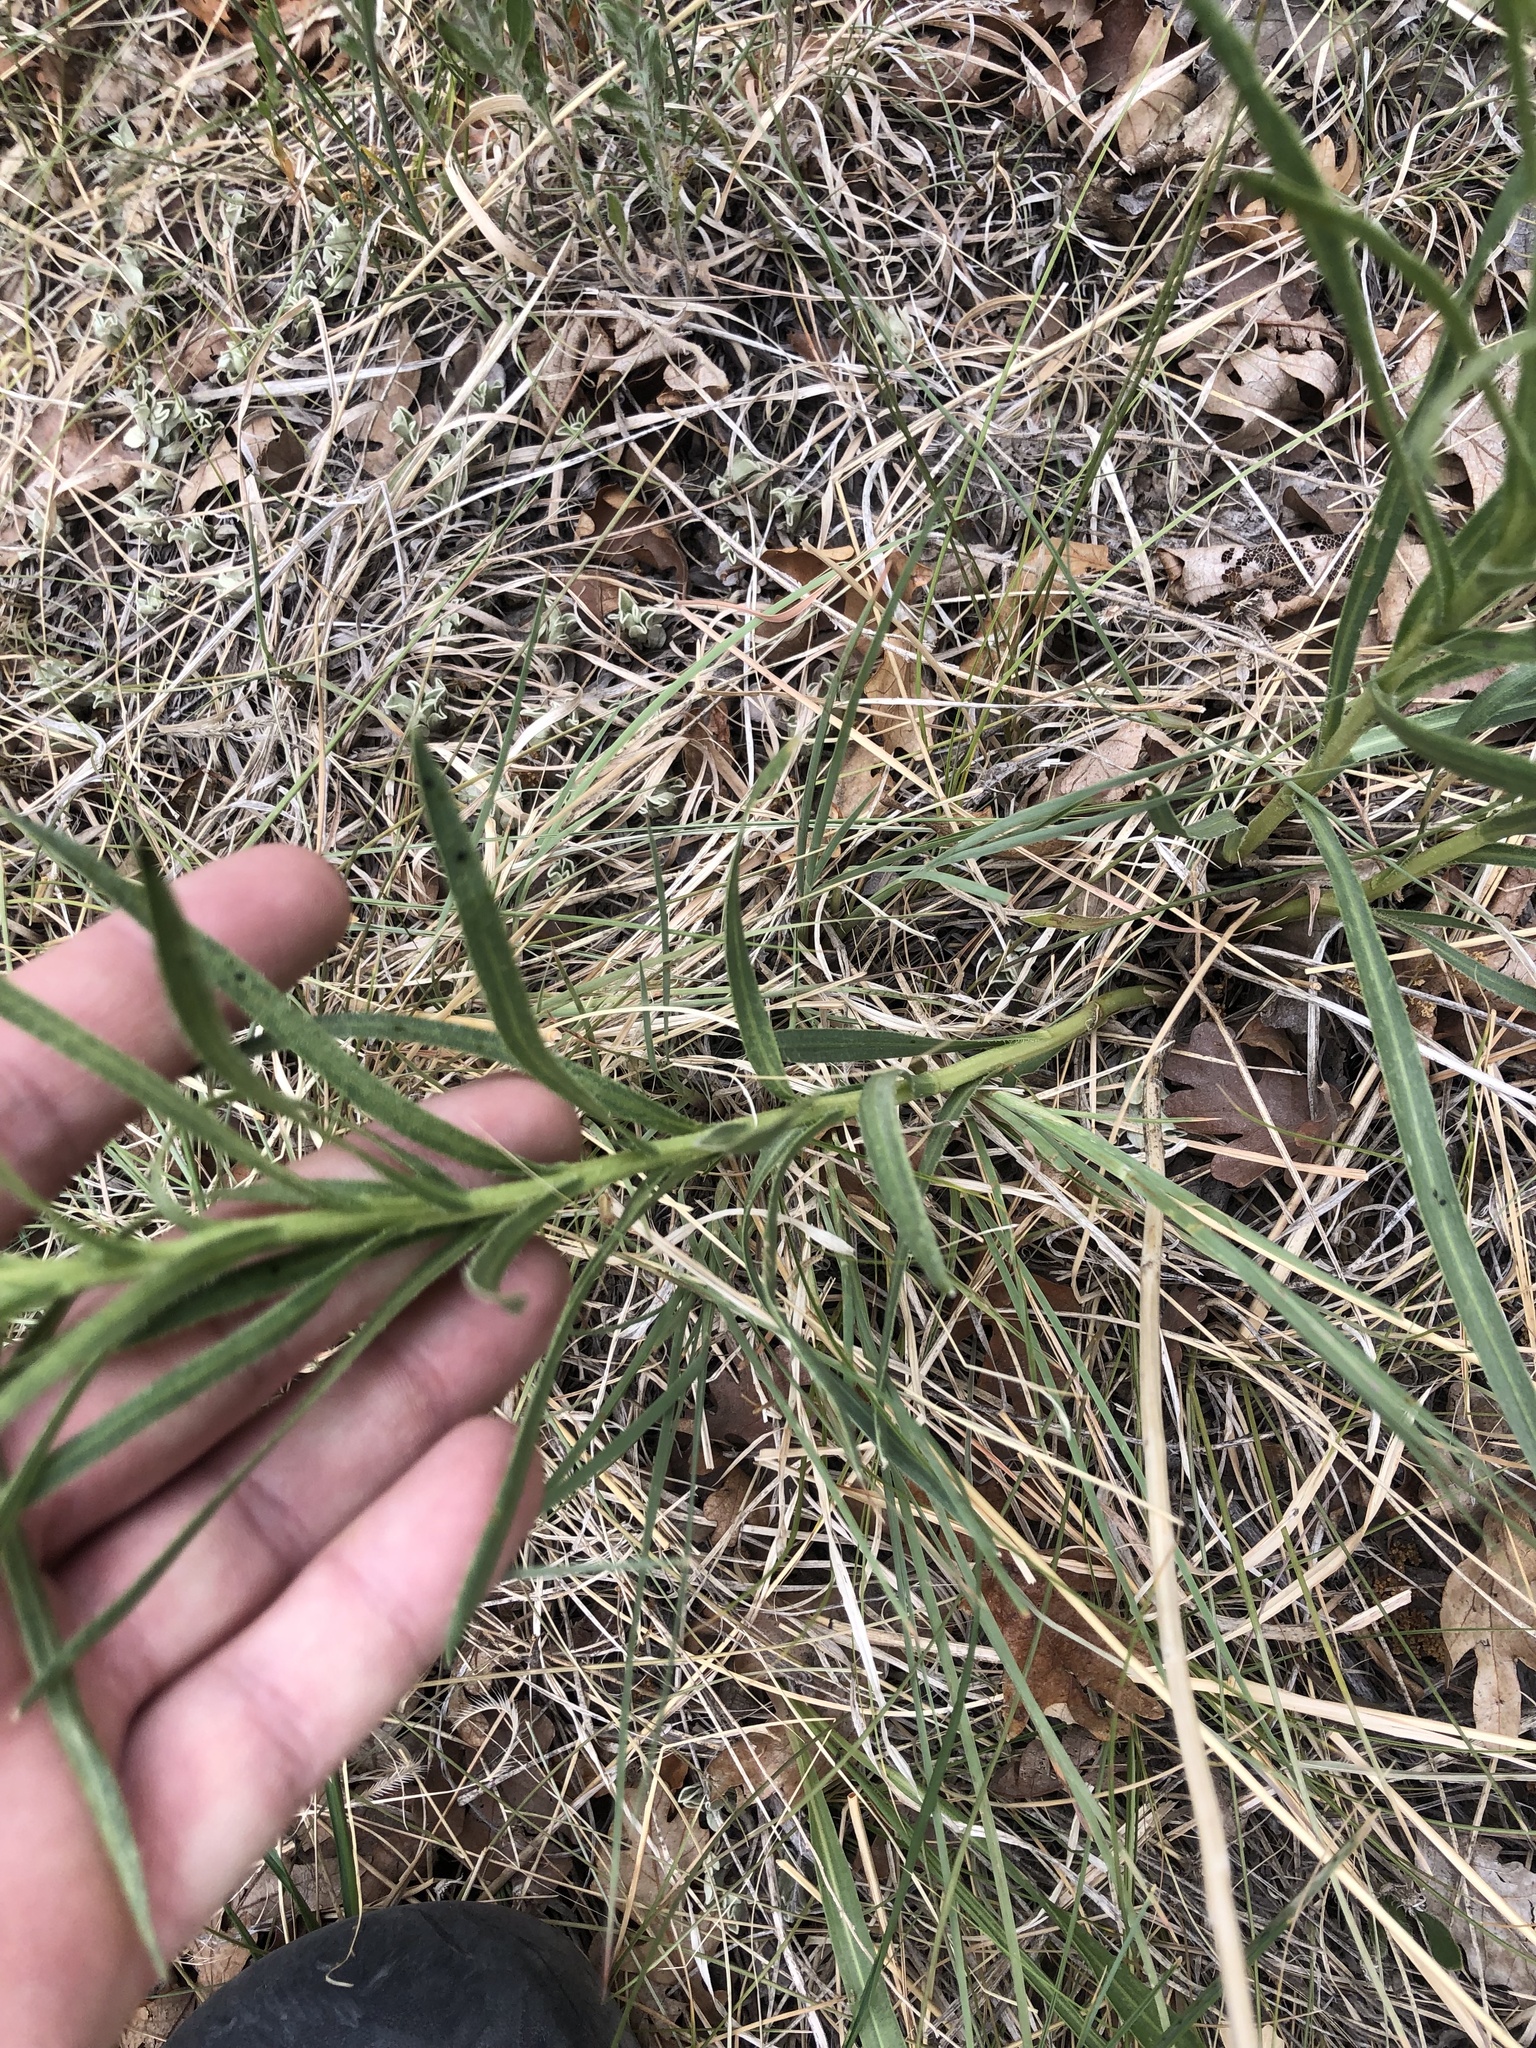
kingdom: Plantae
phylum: Tracheophyta
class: Magnoliopsida
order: Asterales
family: Asteraceae
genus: Liatris
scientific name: Liatris punctata
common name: Dotted gayfeather
